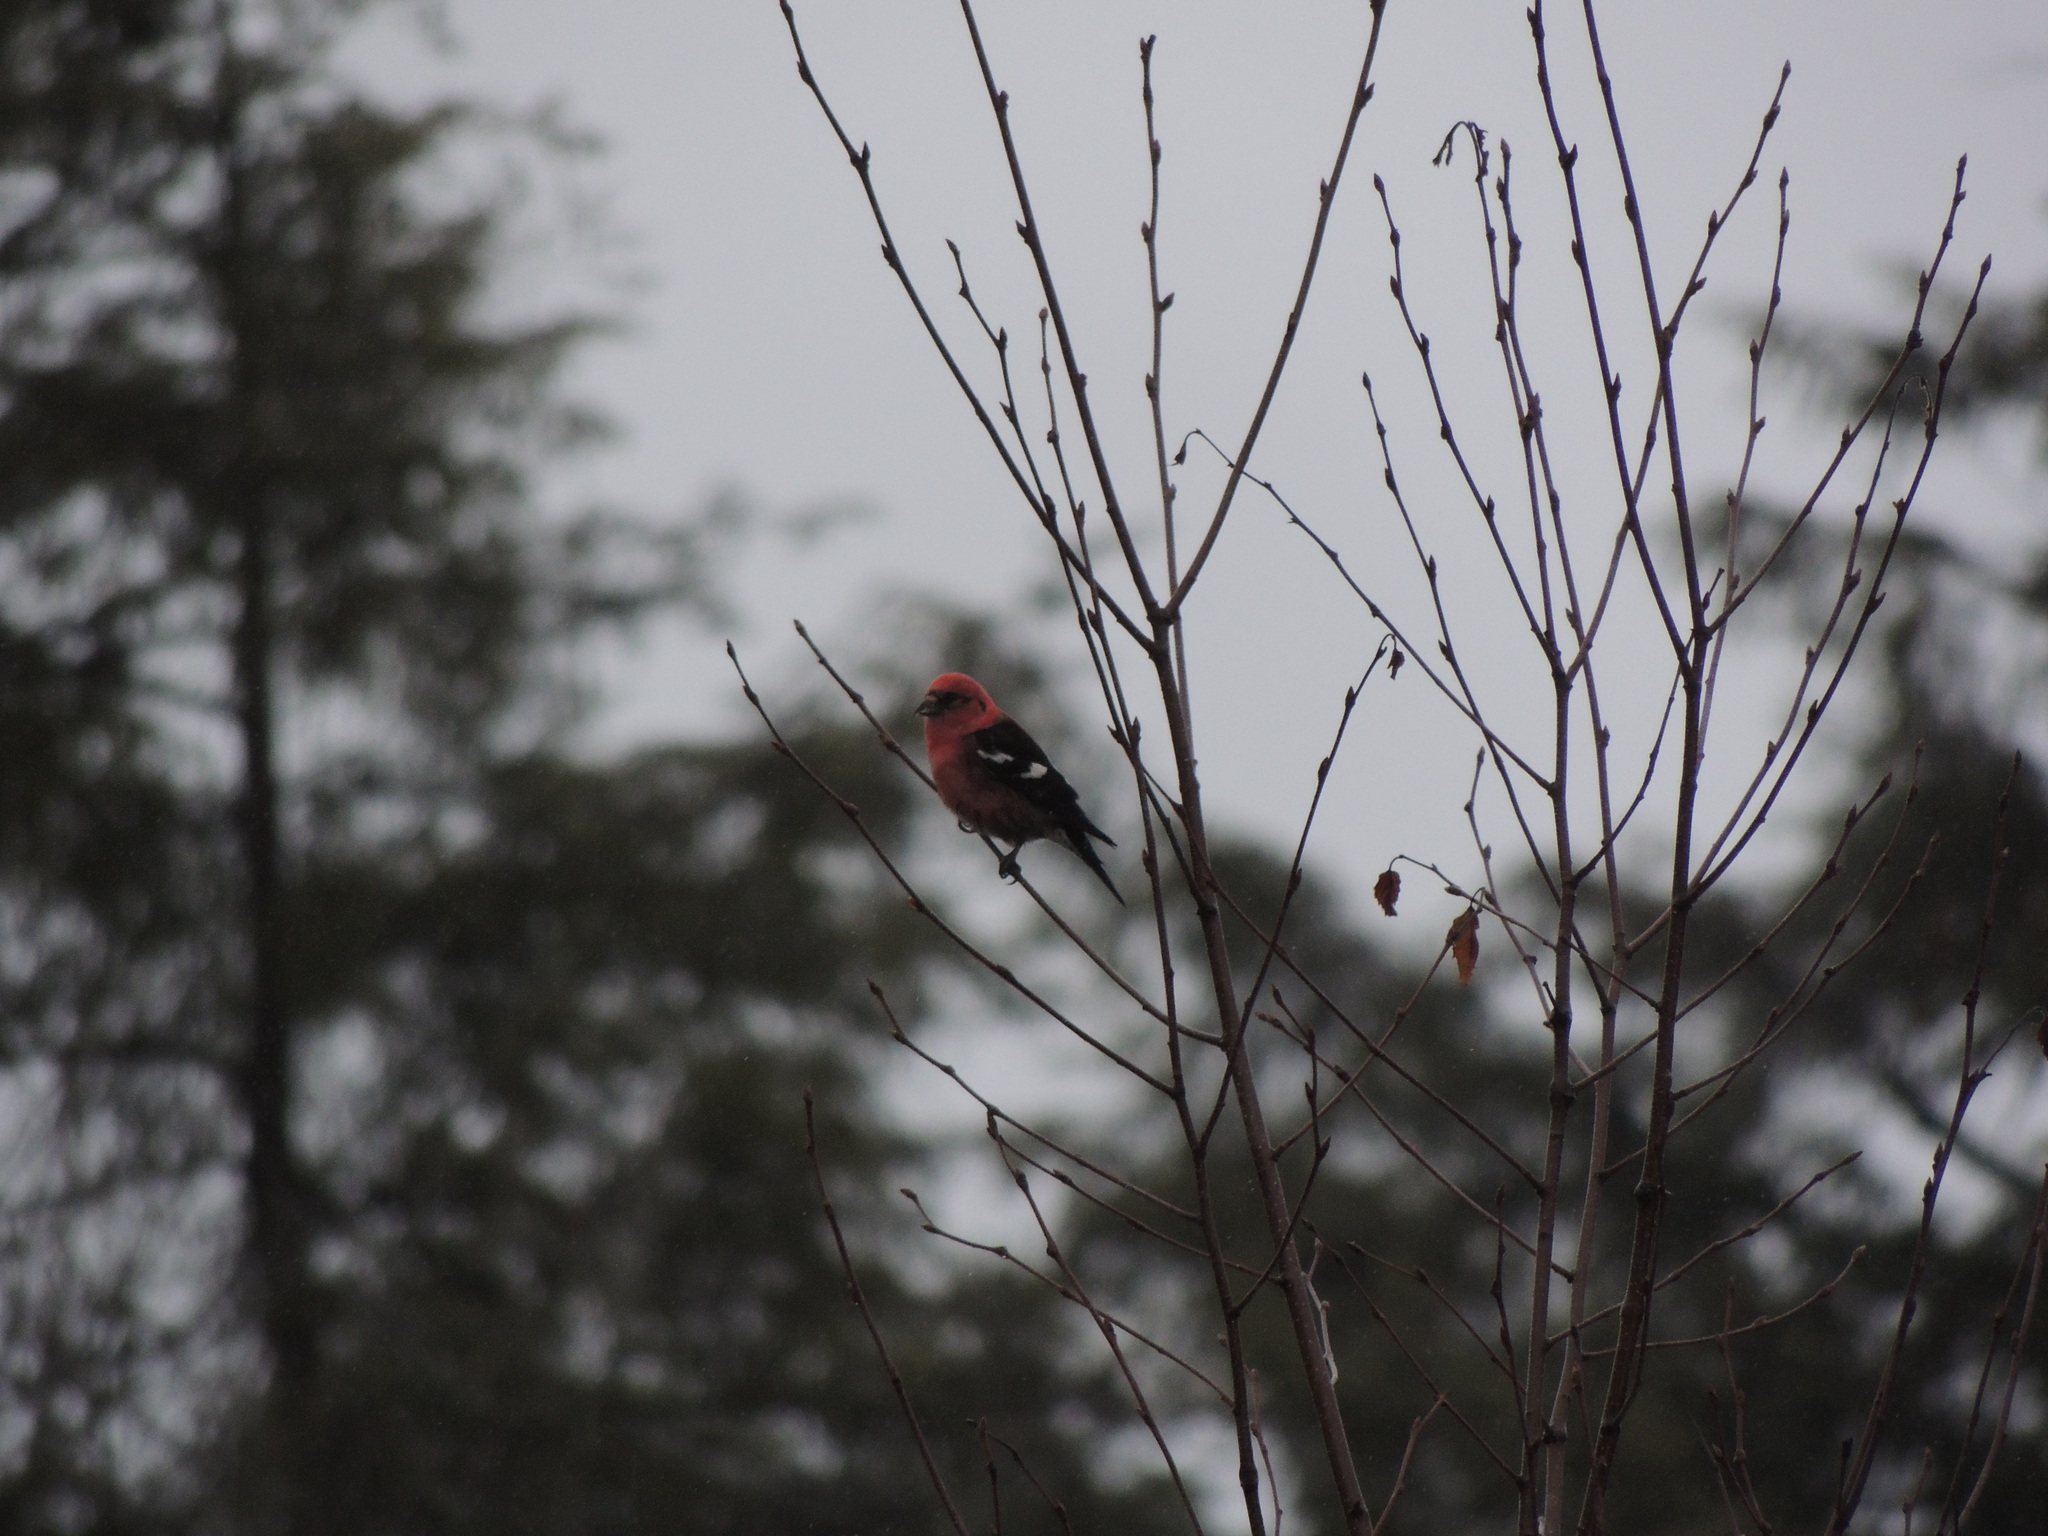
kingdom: Animalia
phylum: Chordata
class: Aves
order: Passeriformes
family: Fringillidae
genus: Loxia
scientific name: Loxia leucoptera
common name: Two-barred crossbill
